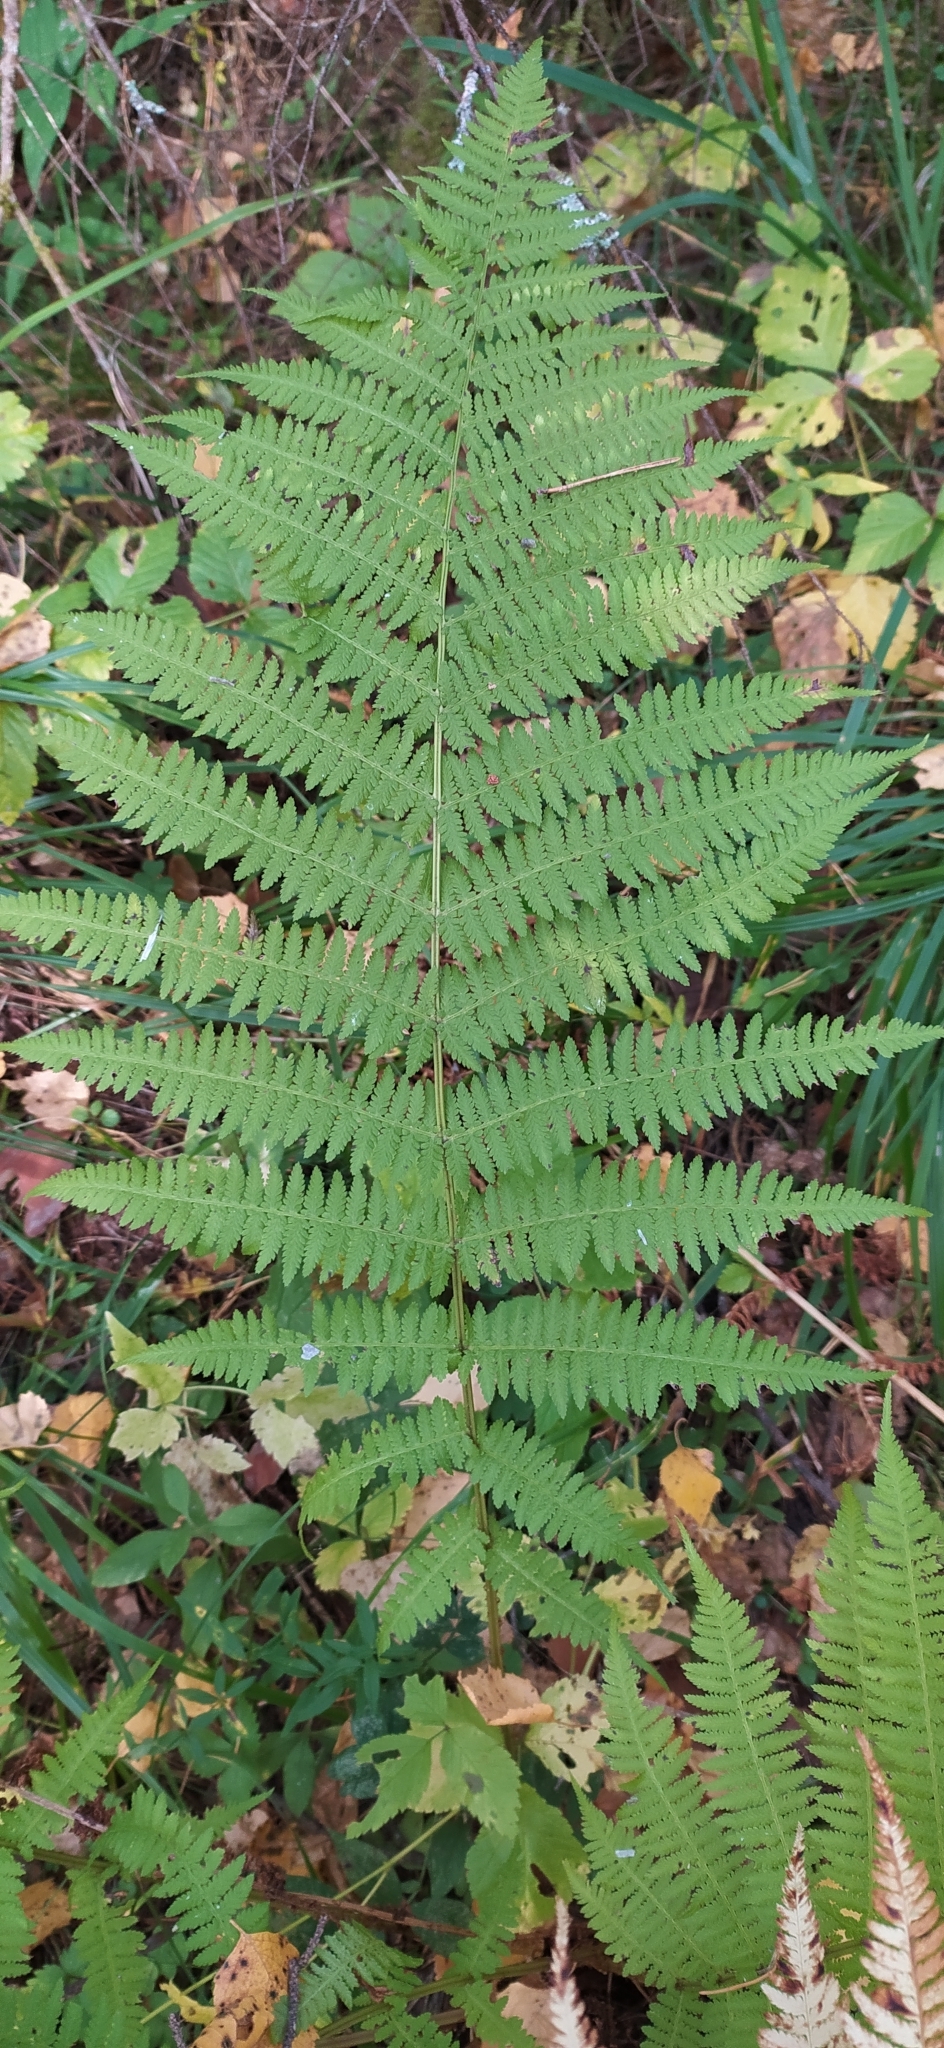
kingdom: Plantae
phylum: Tracheophyta
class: Polypodiopsida
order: Polypodiales
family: Athyriaceae
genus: Athyrium
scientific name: Athyrium filix-femina
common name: Lady fern
